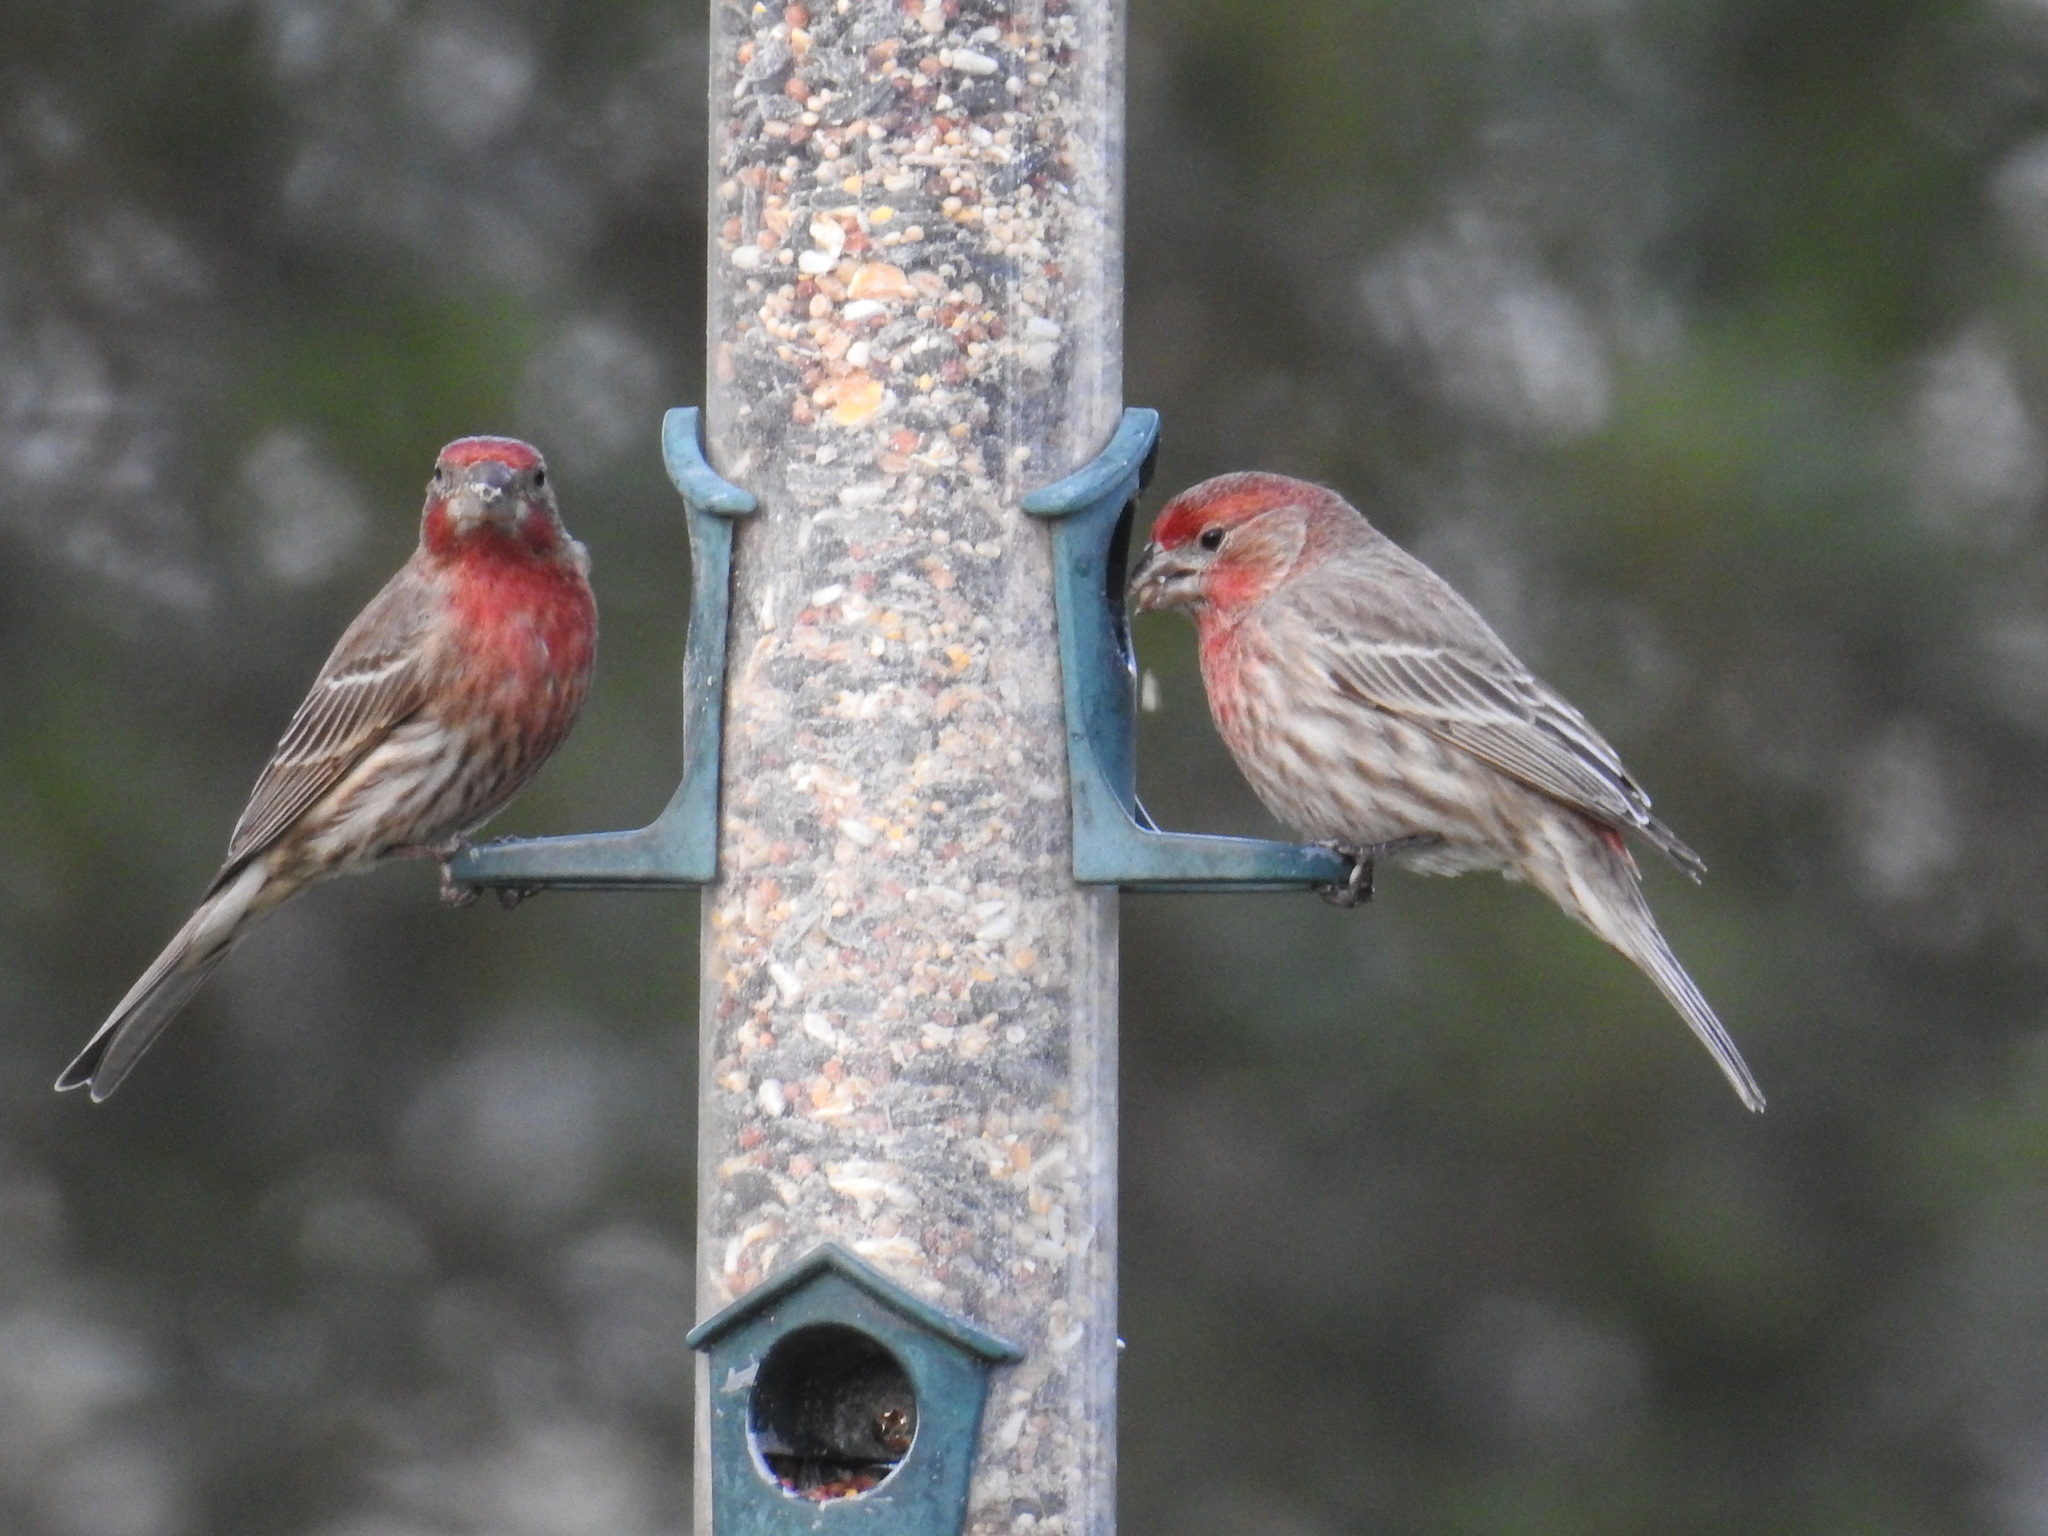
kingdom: Animalia
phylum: Chordata
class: Aves
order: Passeriformes
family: Fringillidae
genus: Haemorhous
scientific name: Haemorhous mexicanus
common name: House finch
